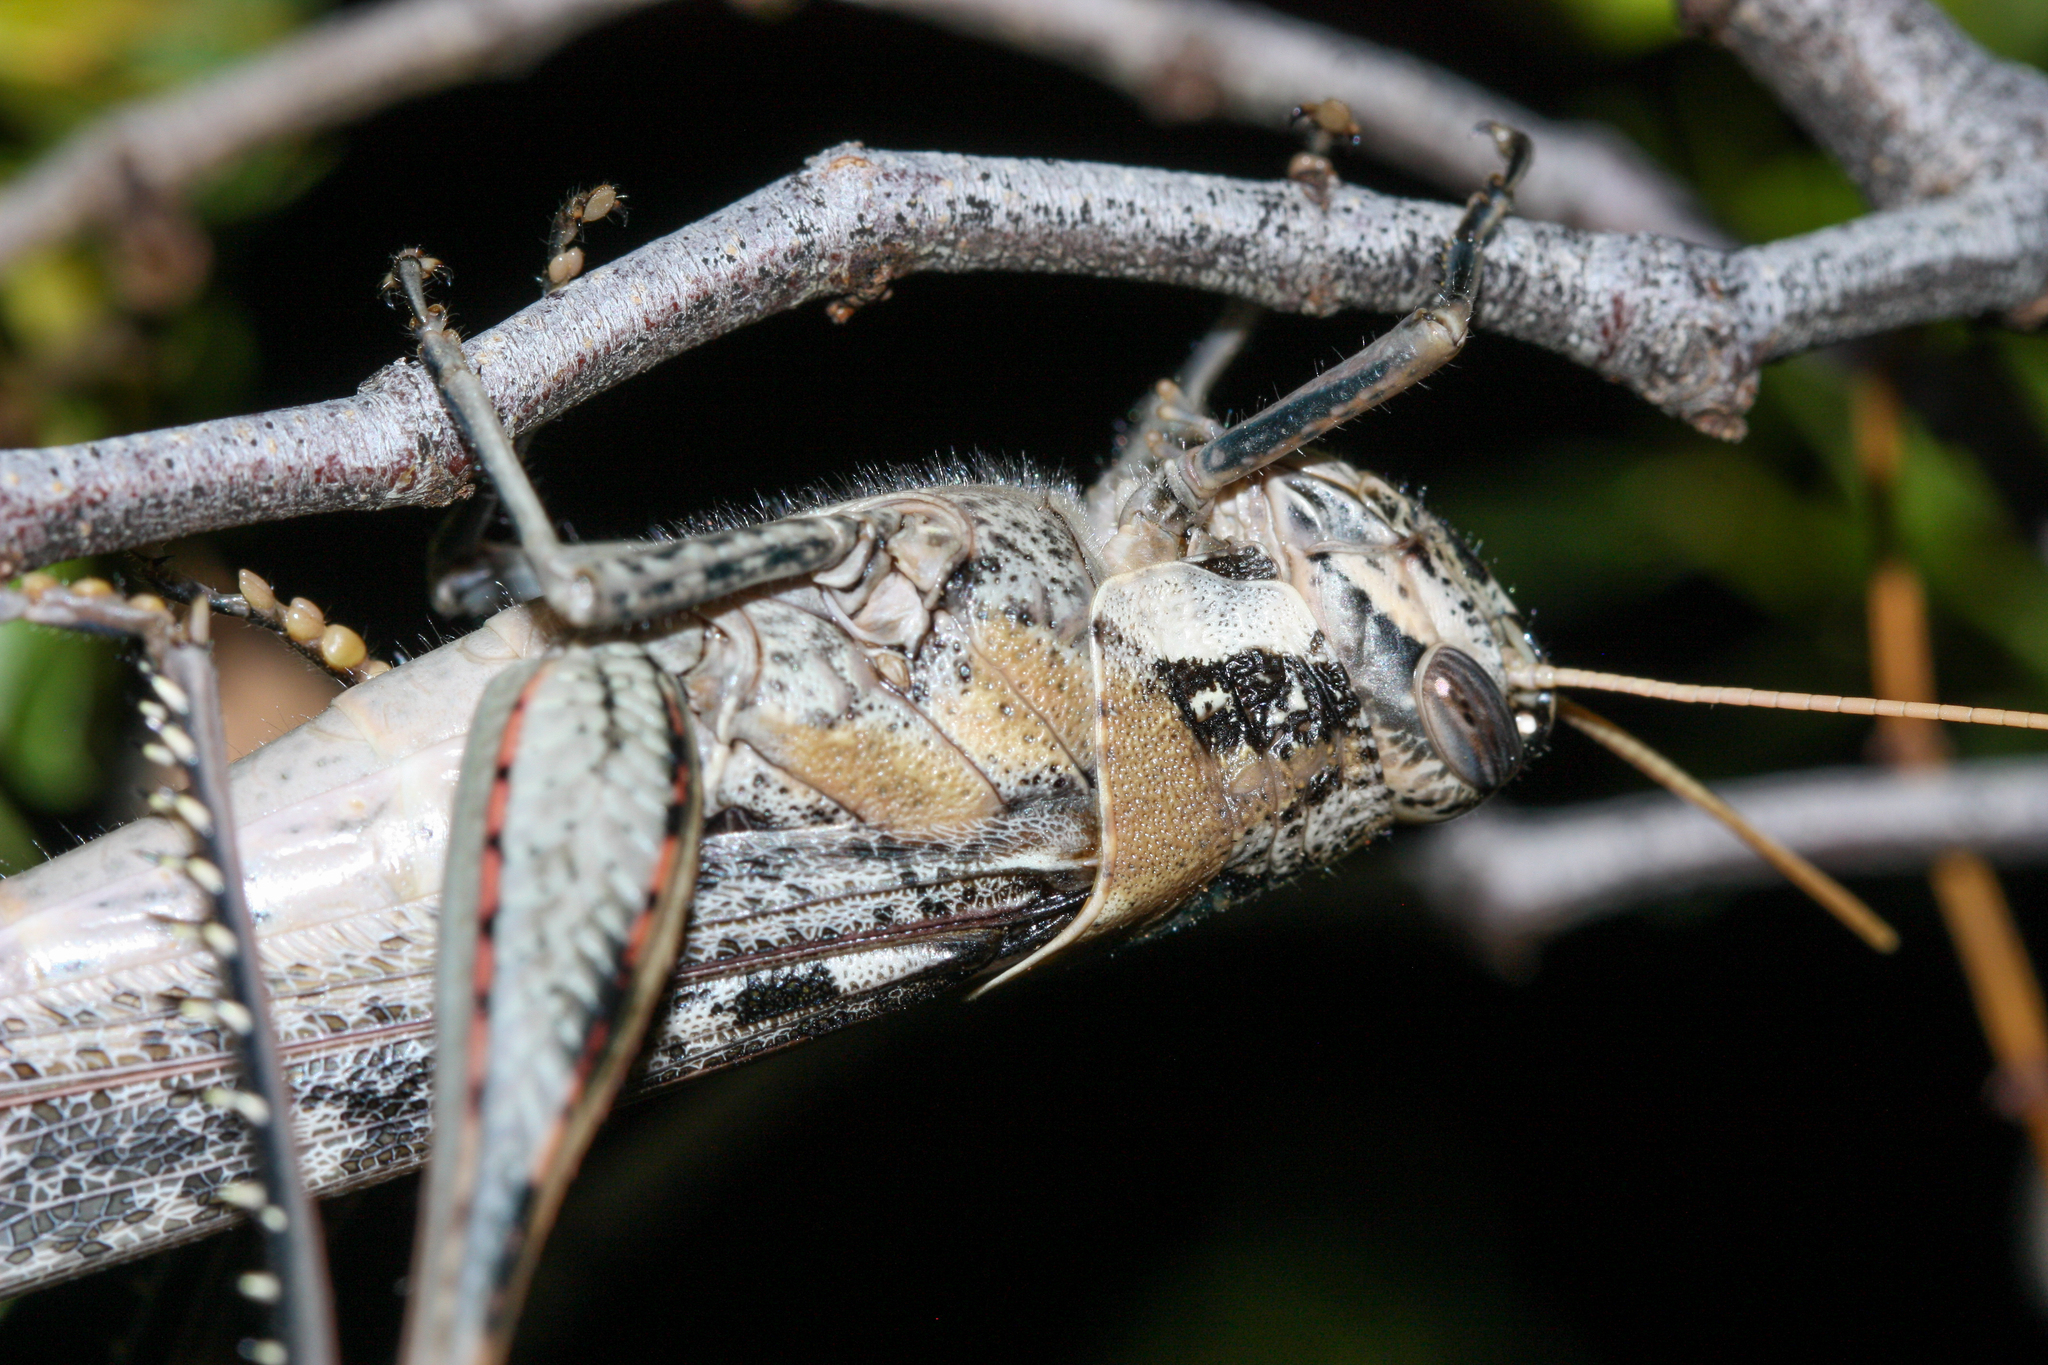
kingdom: Animalia
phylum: Arthropoda
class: Insecta
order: Orthoptera
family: Acrididae
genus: Schistocerca
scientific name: Schistocerca nitens
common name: Vagrant grasshopper
